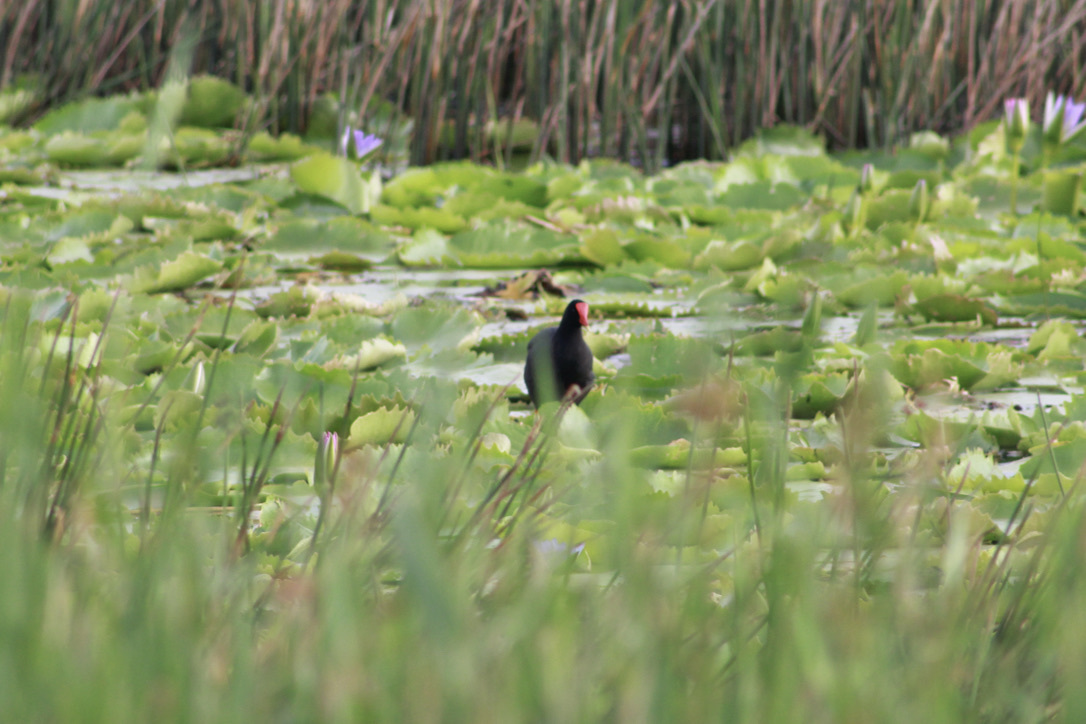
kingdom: Animalia
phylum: Chordata
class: Aves
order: Gruiformes
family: Rallidae
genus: Gallinula
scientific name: Gallinula chloropus
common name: Common moorhen
